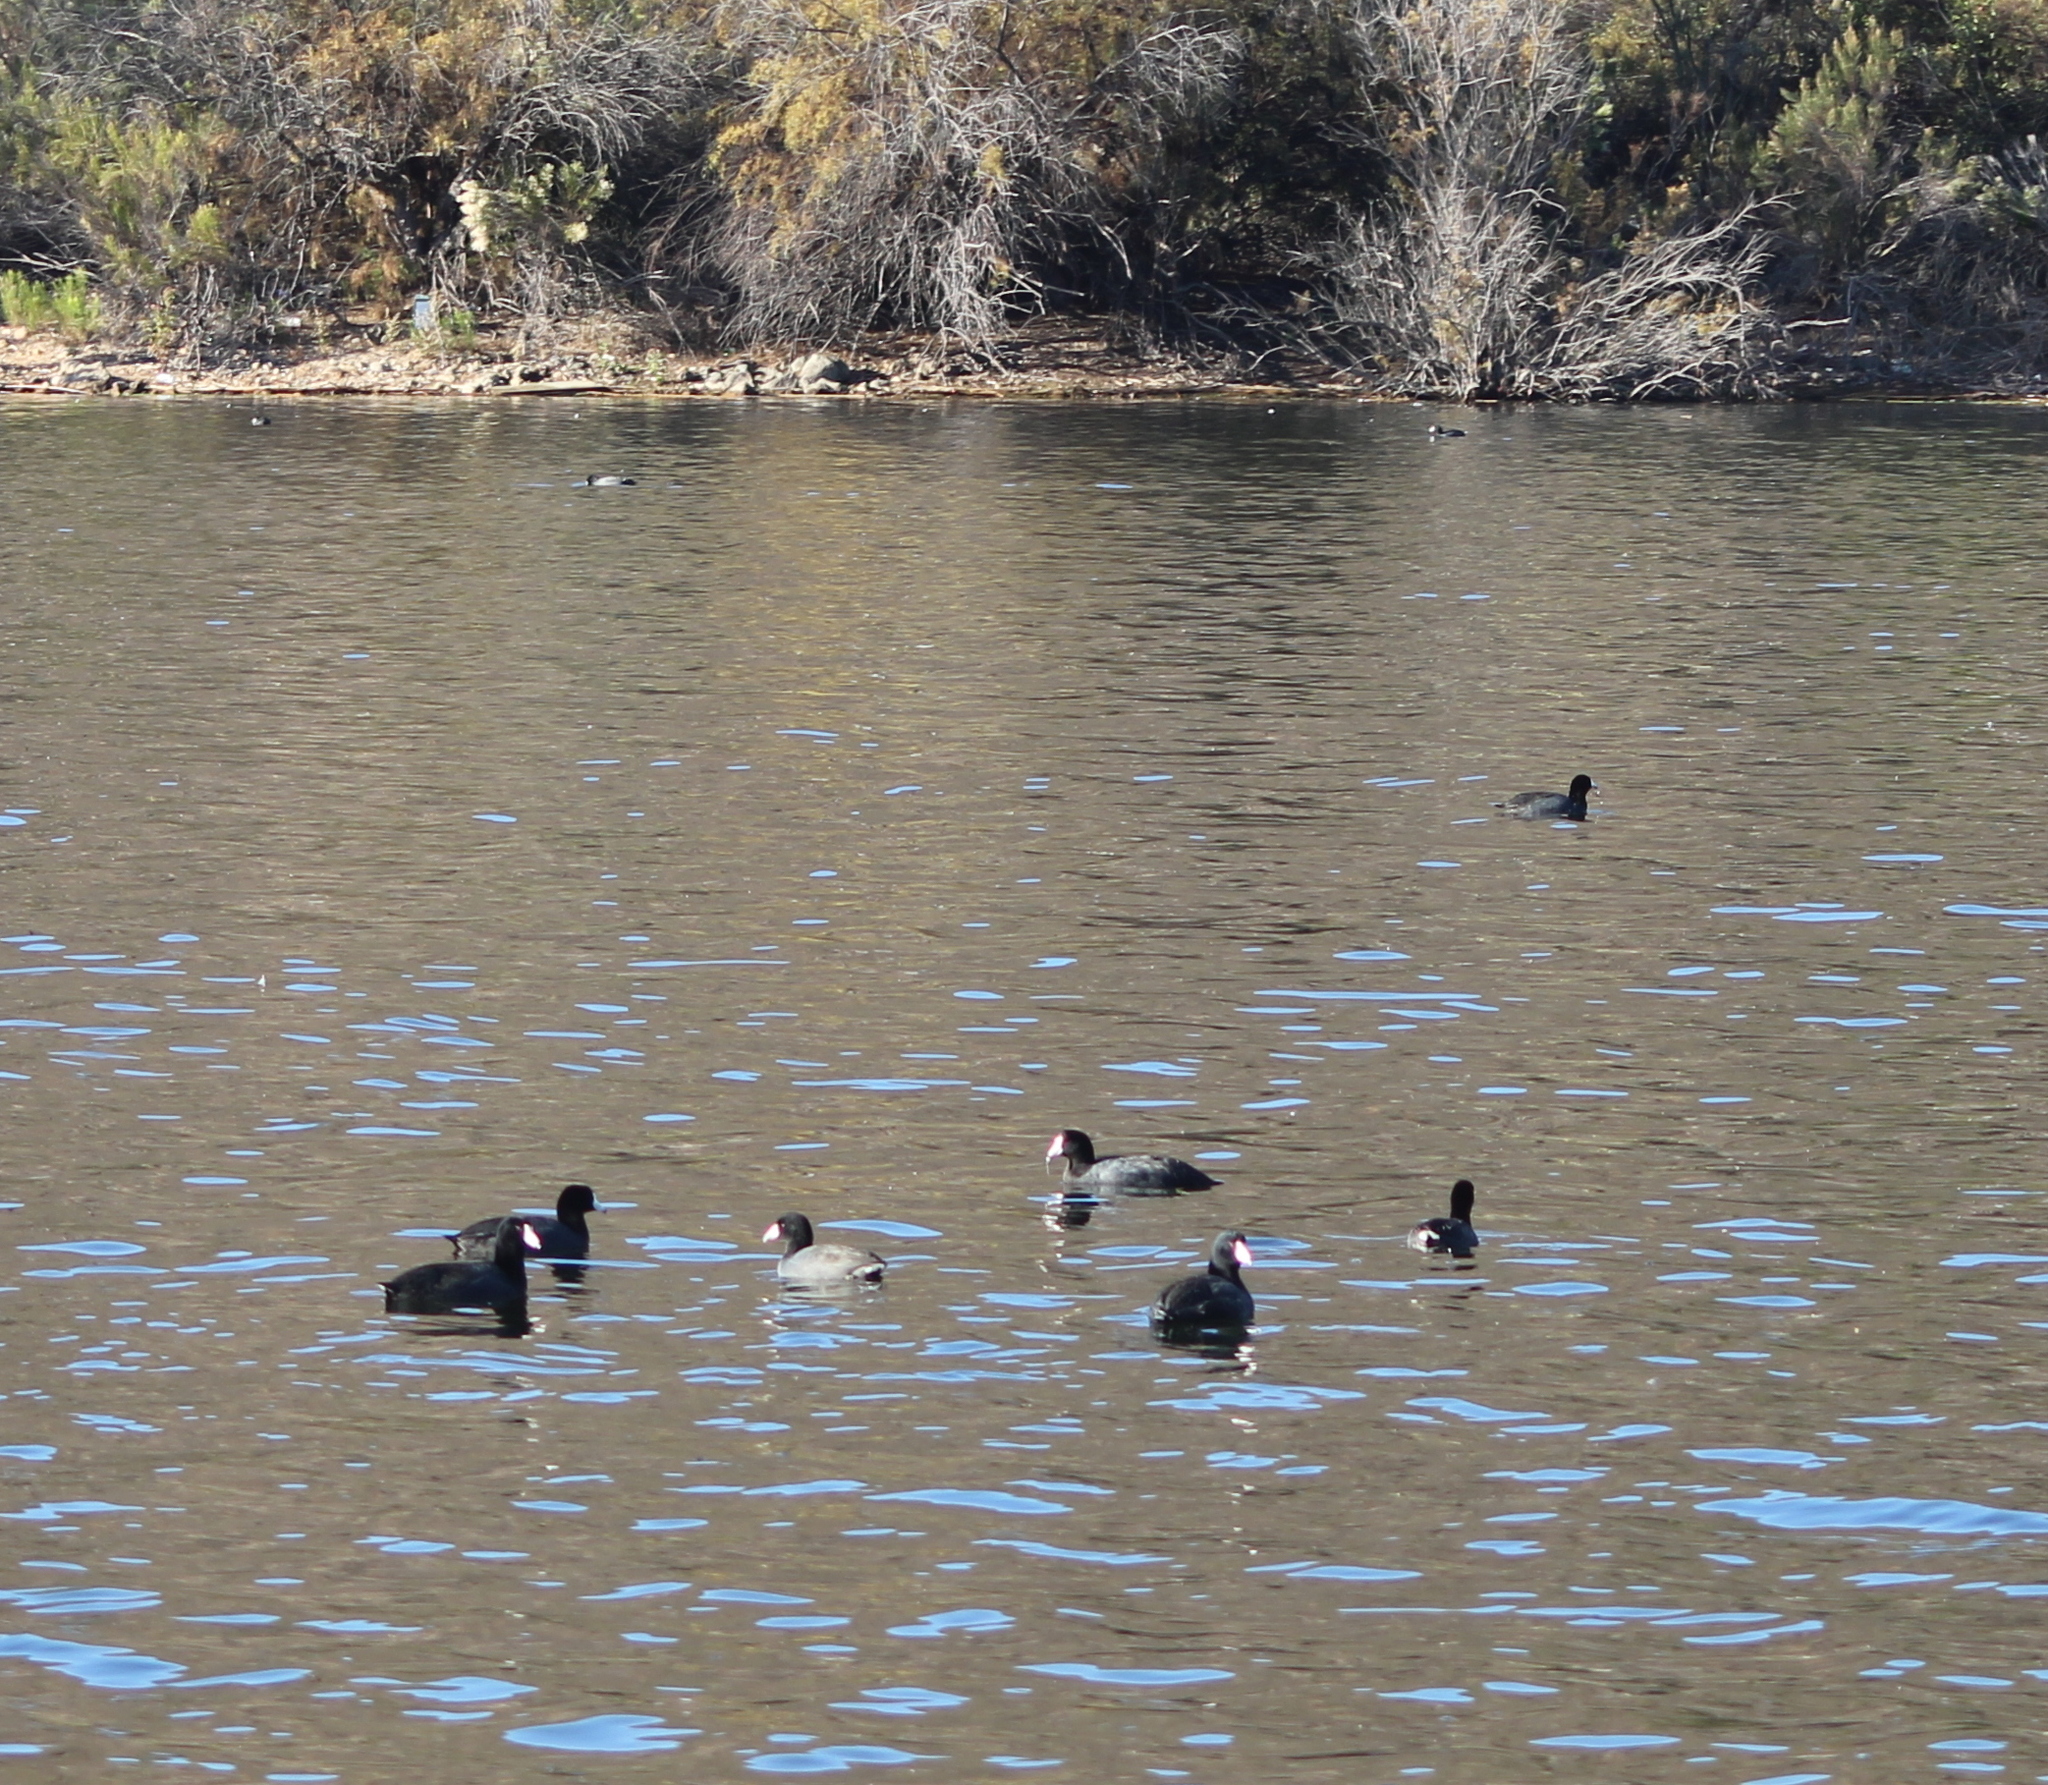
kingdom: Animalia
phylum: Chordata
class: Aves
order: Gruiformes
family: Rallidae
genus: Fulica
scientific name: Fulica americana
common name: American coot
